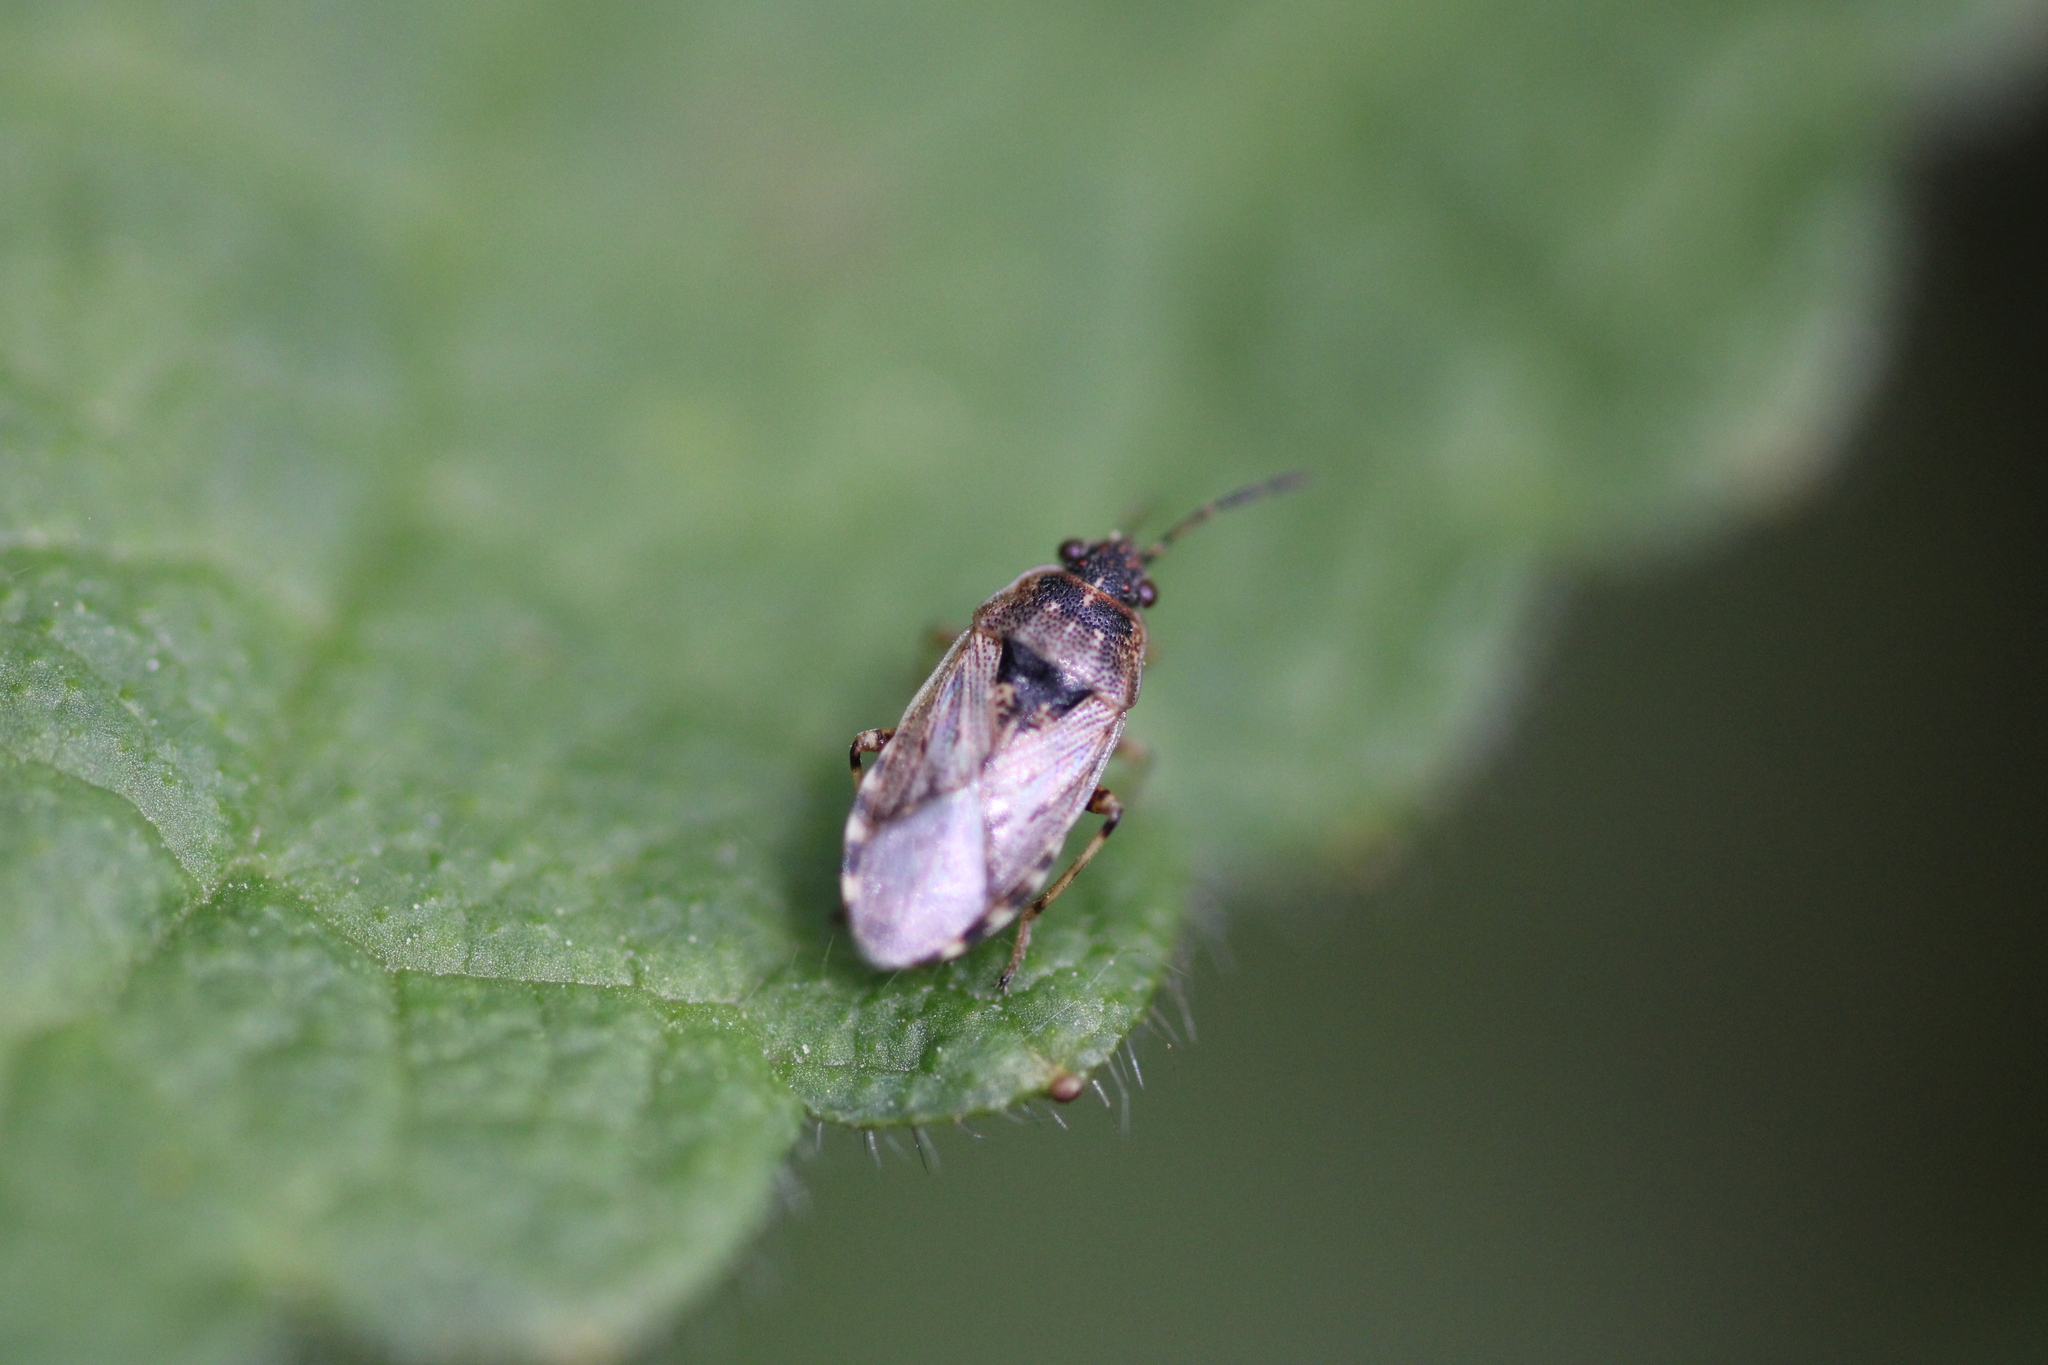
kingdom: Animalia
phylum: Arthropoda
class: Insecta
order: Hemiptera
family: Heterogastridae
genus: Platyplax
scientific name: Platyplax salviae
